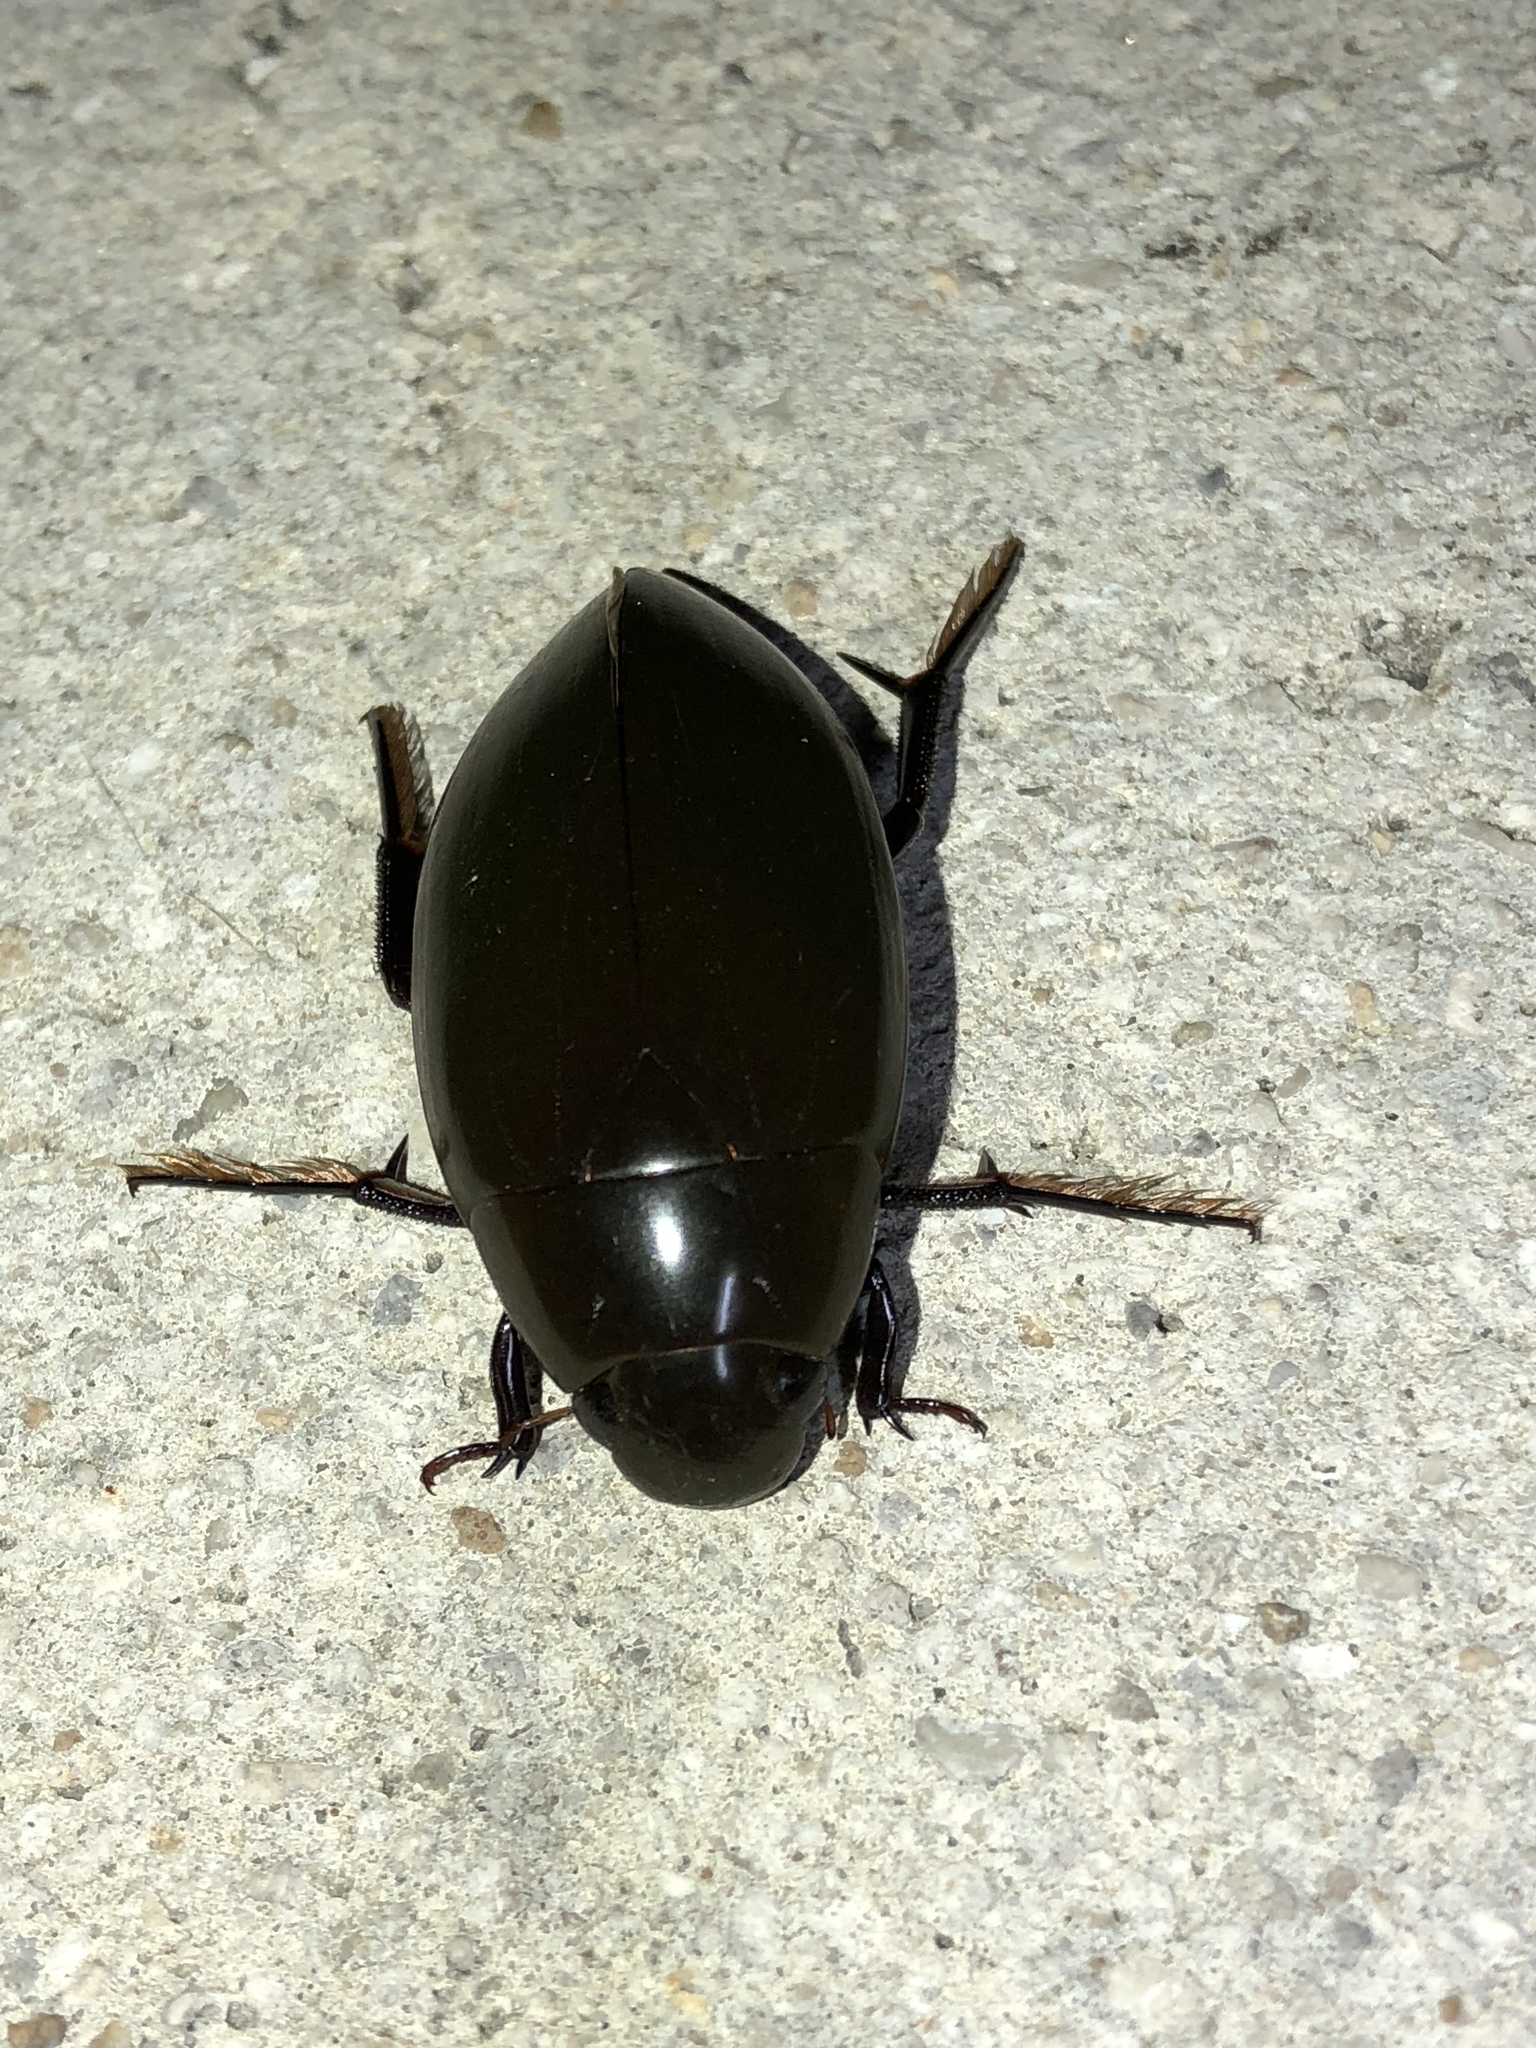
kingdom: Animalia
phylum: Arthropoda
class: Insecta
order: Coleoptera
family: Hydrophilidae
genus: Hydrophilus
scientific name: Hydrophilus
